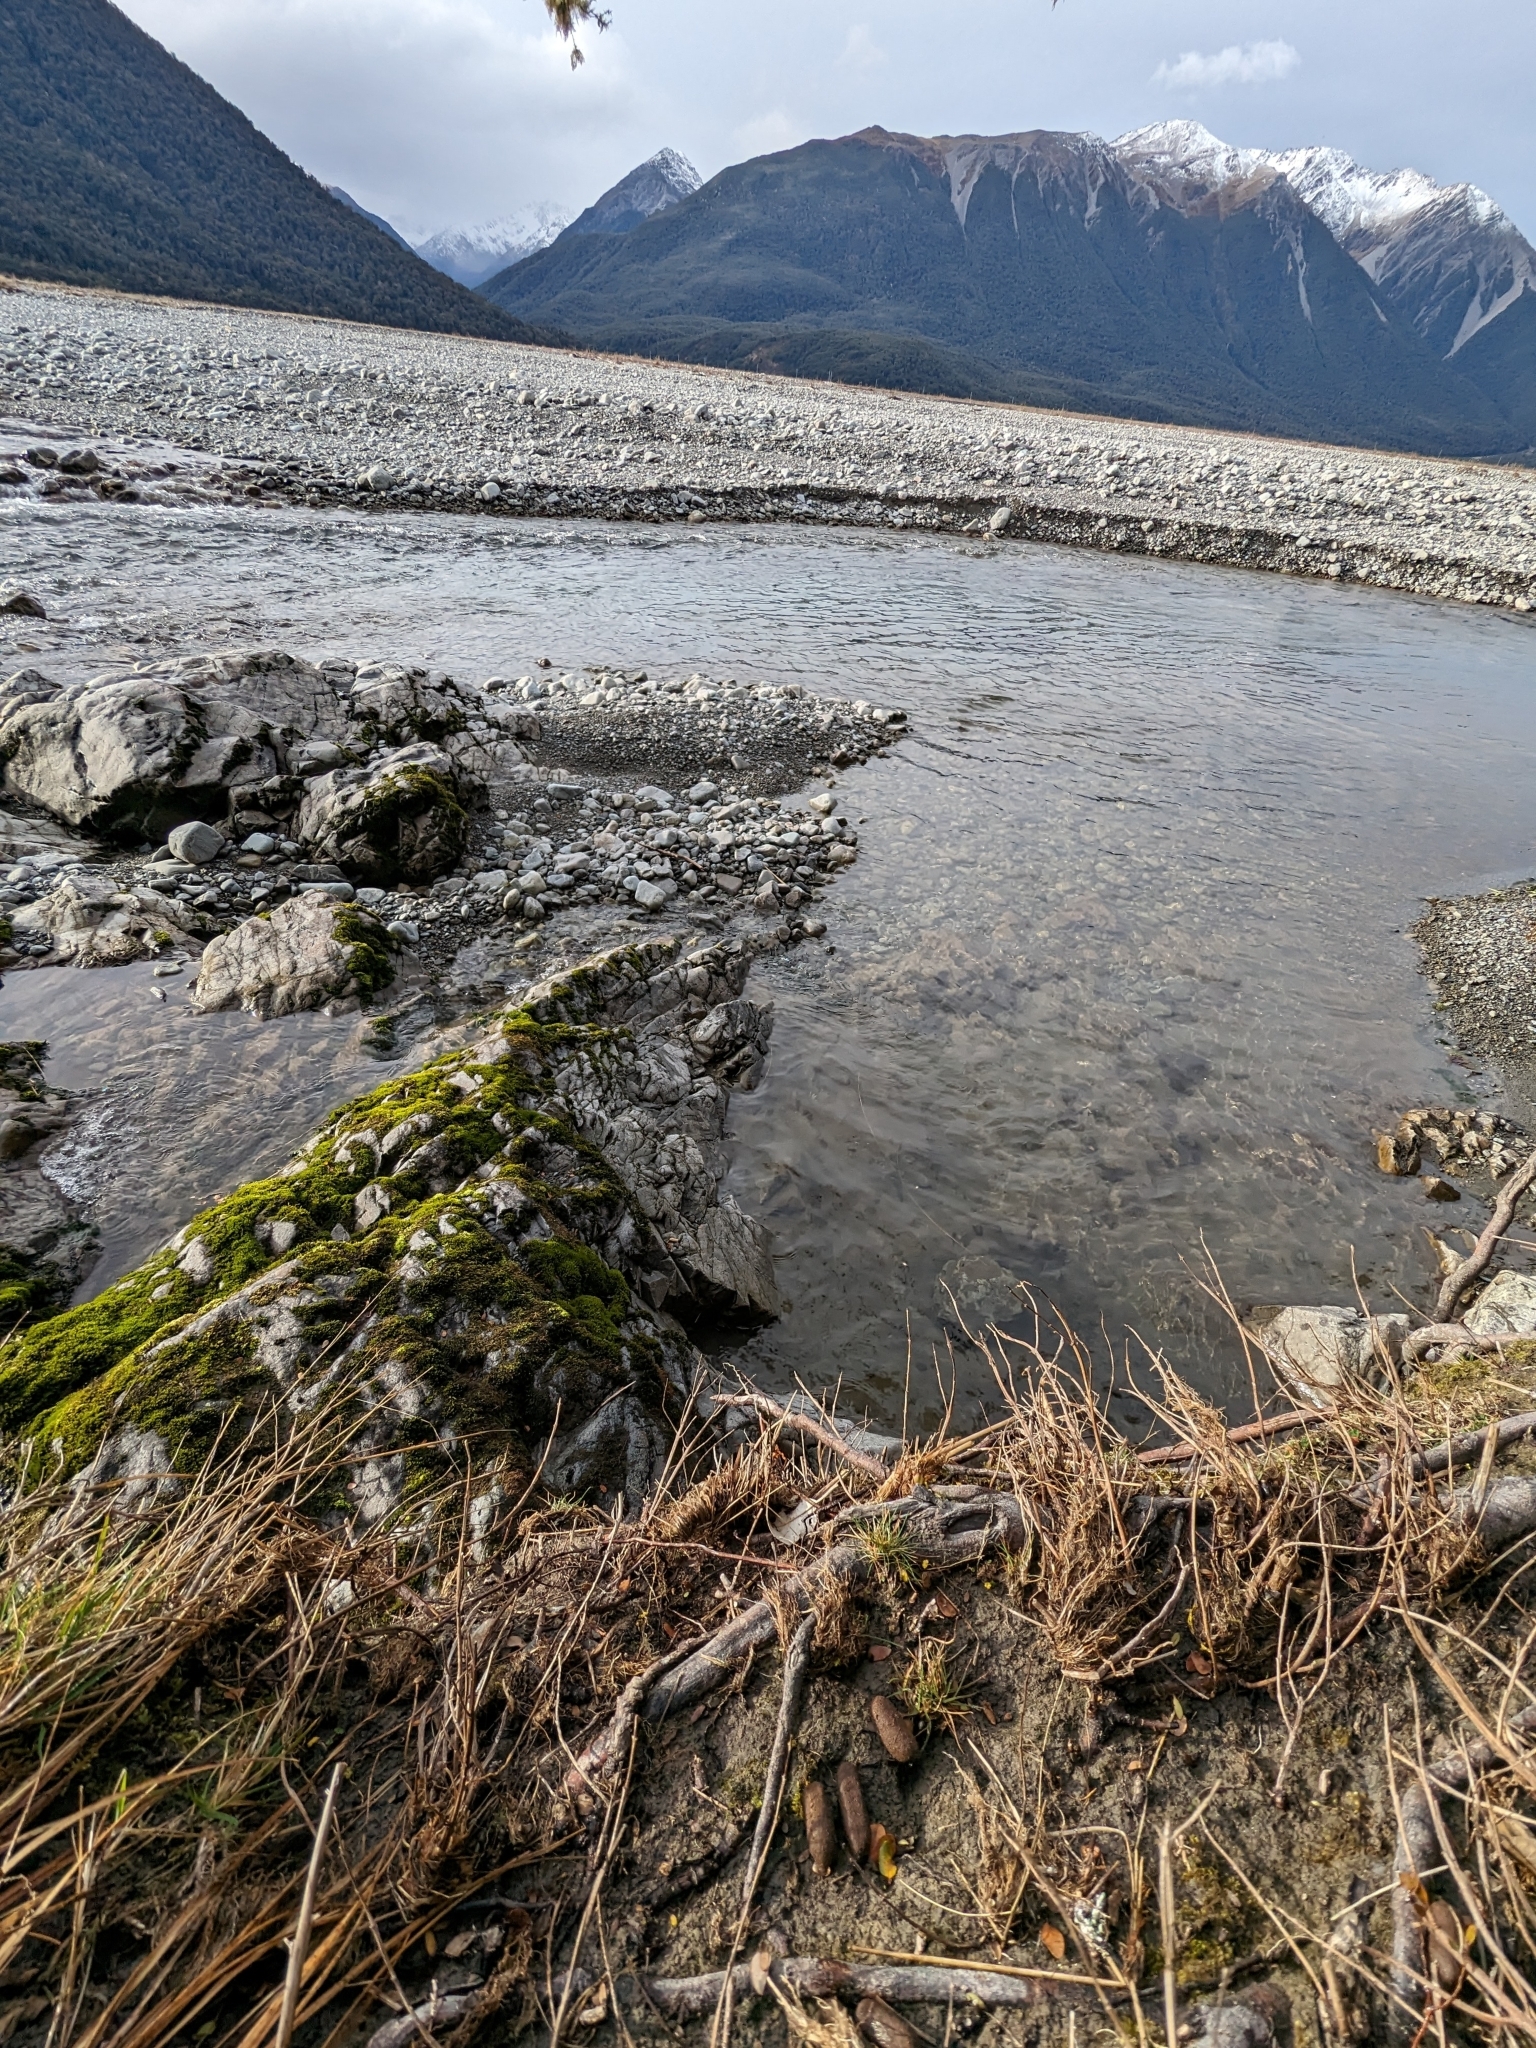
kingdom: Animalia
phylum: Chordata
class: Mammalia
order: Diprotodontia
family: Phalangeridae
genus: Trichosurus
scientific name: Trichosurus vulpecula
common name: Common brushtail
